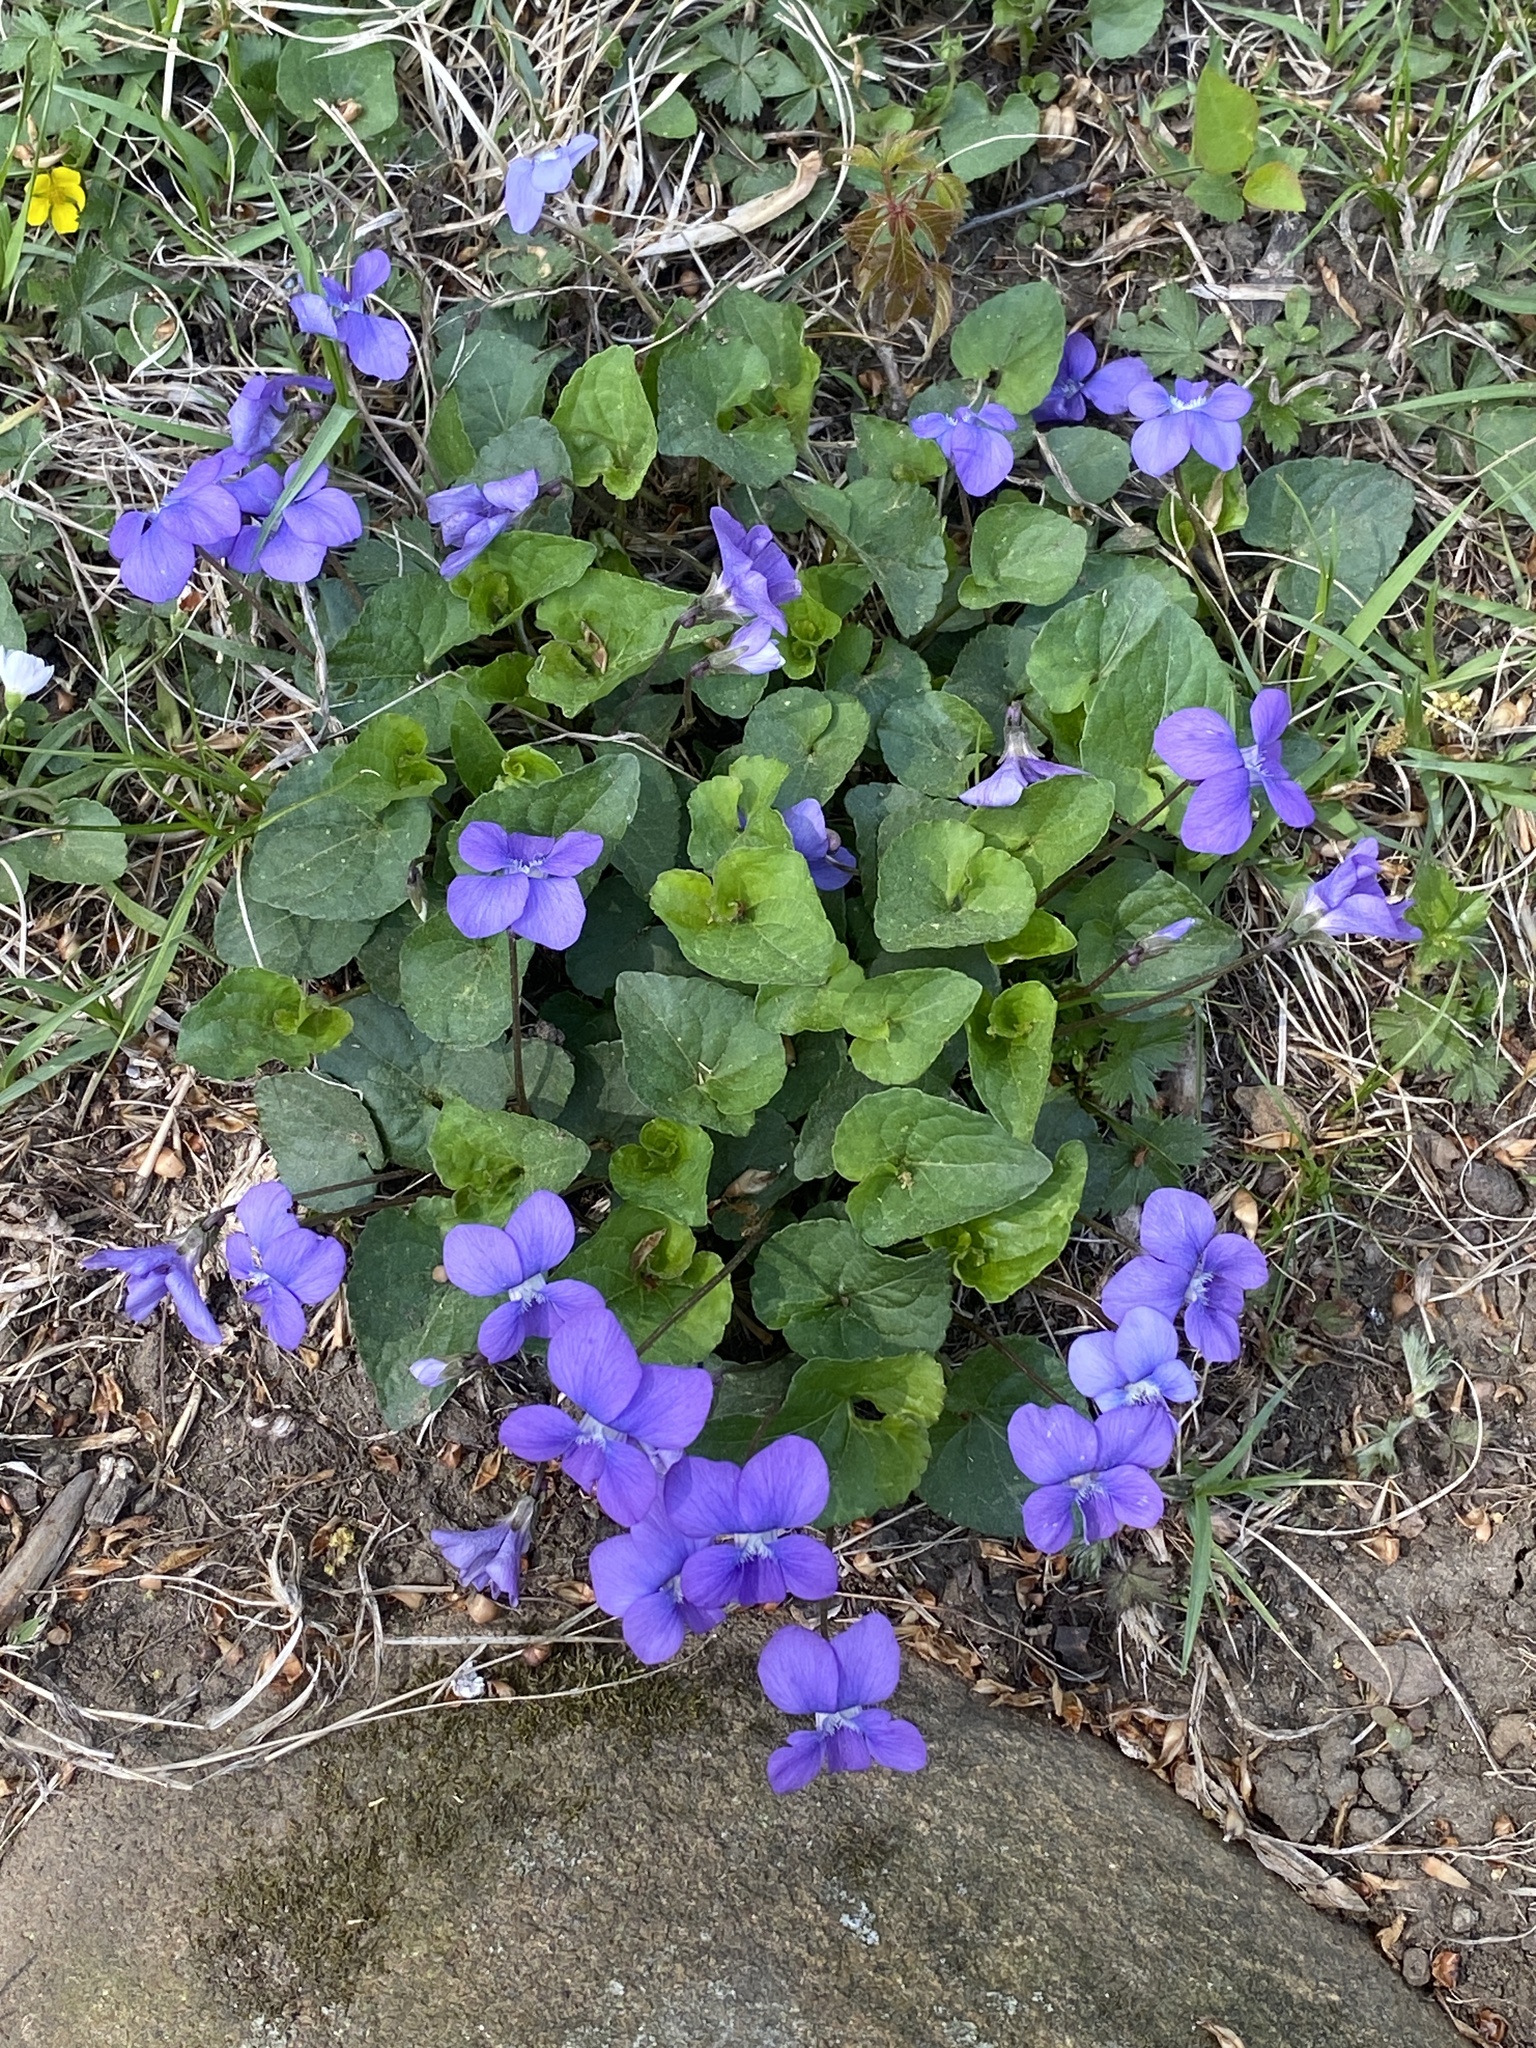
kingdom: Plantae
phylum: Tracheophyta
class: Magnoliopsida
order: Malpighiales
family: Violaceae
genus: Viola
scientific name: Viola sororia
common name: Dooryard violet
